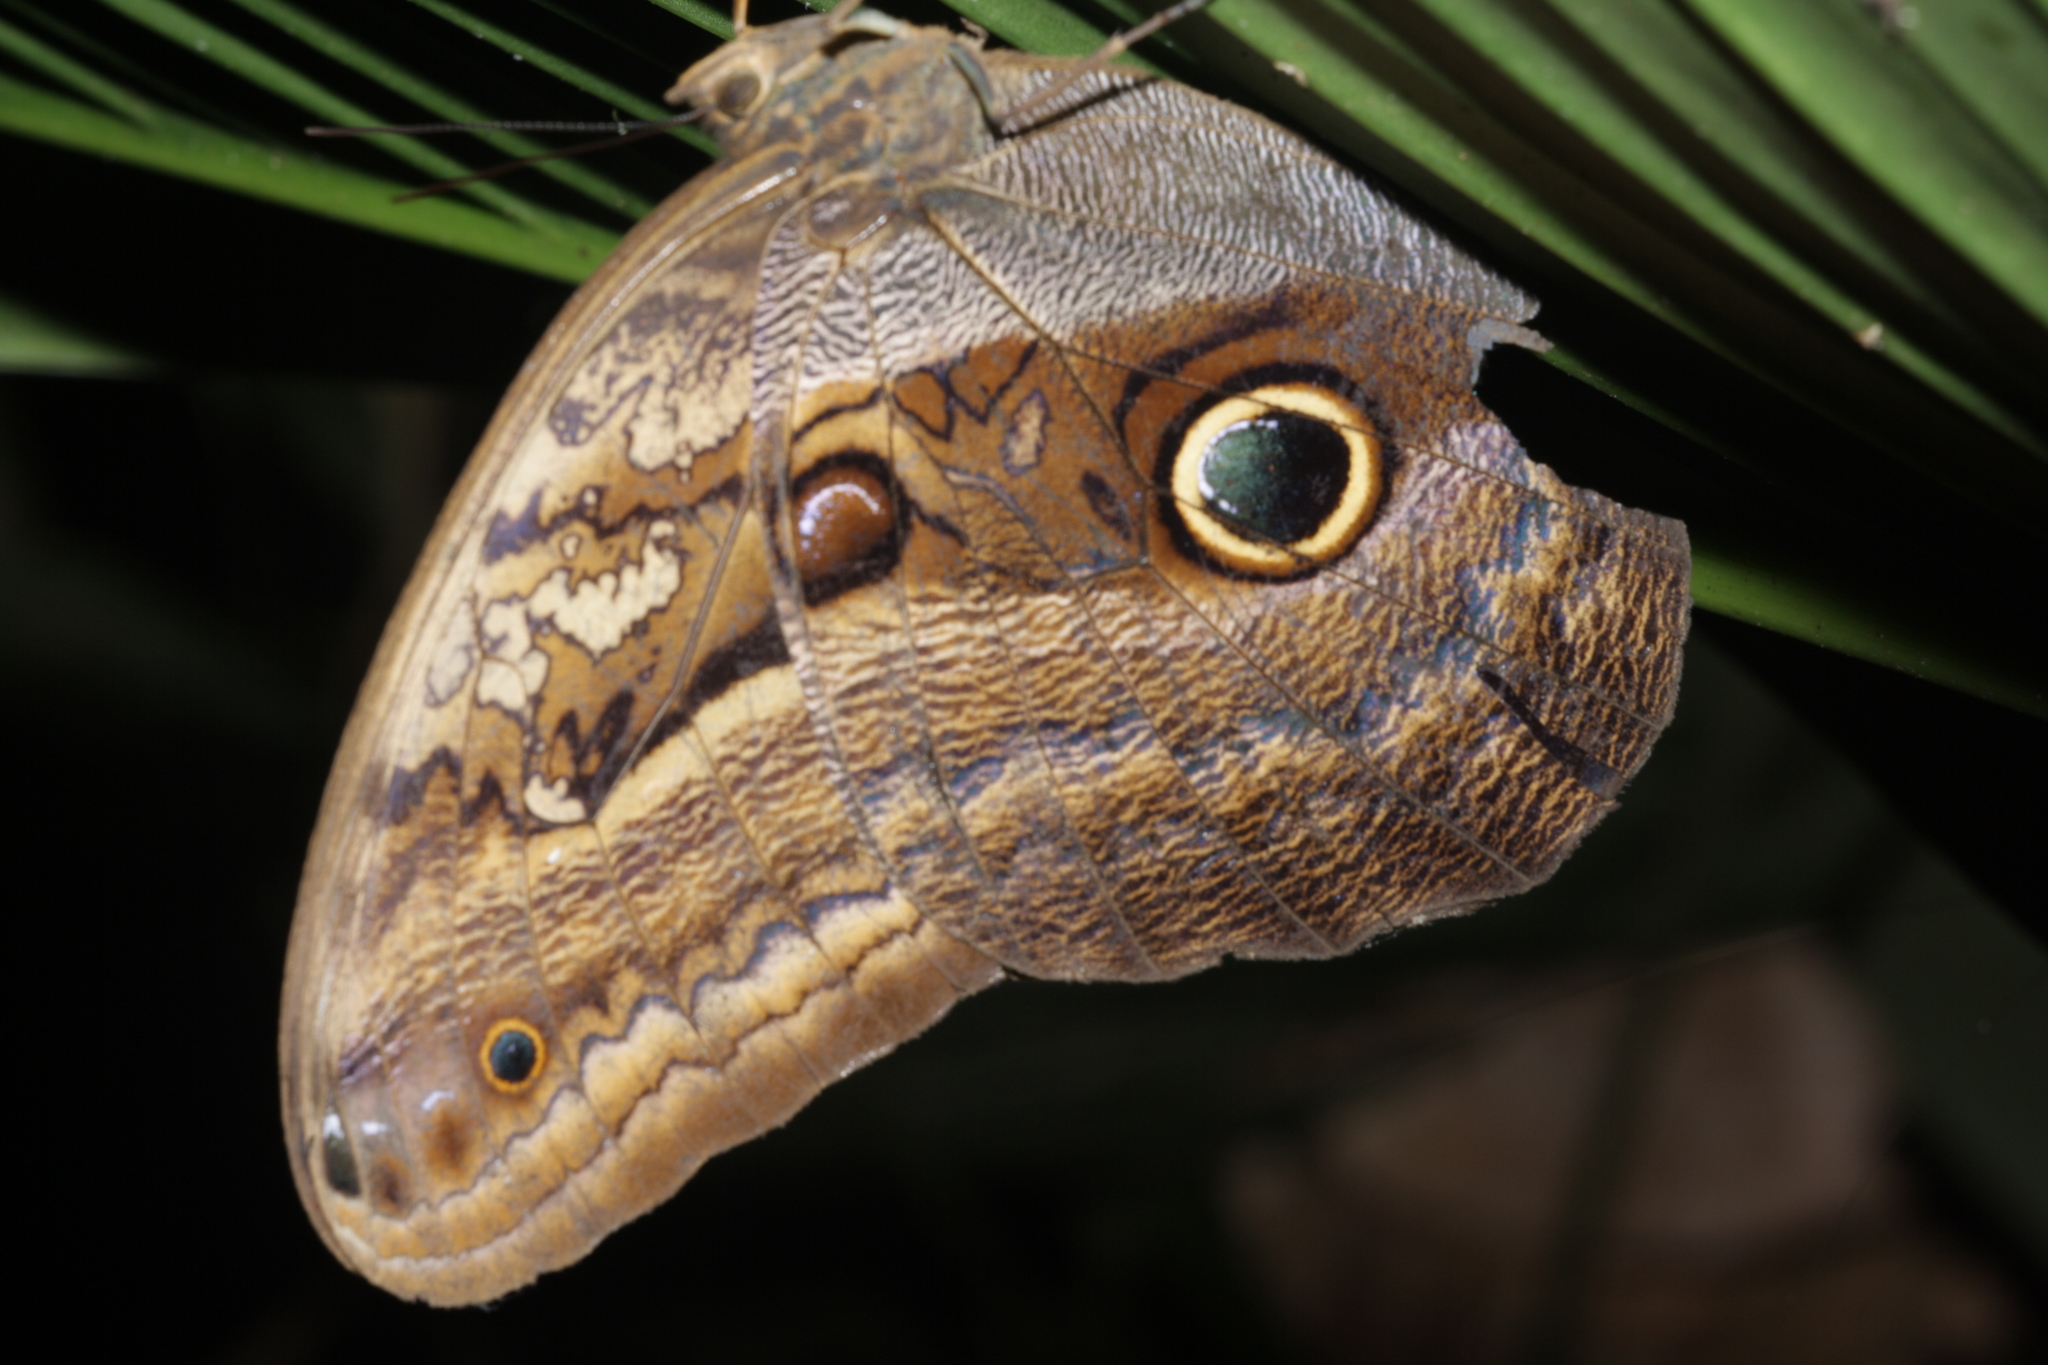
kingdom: Animalia
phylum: Arthropoda
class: Insecta
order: Lepidoptera
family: Nymphalidae
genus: Caligo
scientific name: Caligo oedipus
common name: Fruhstorfer's owl-butterfly
